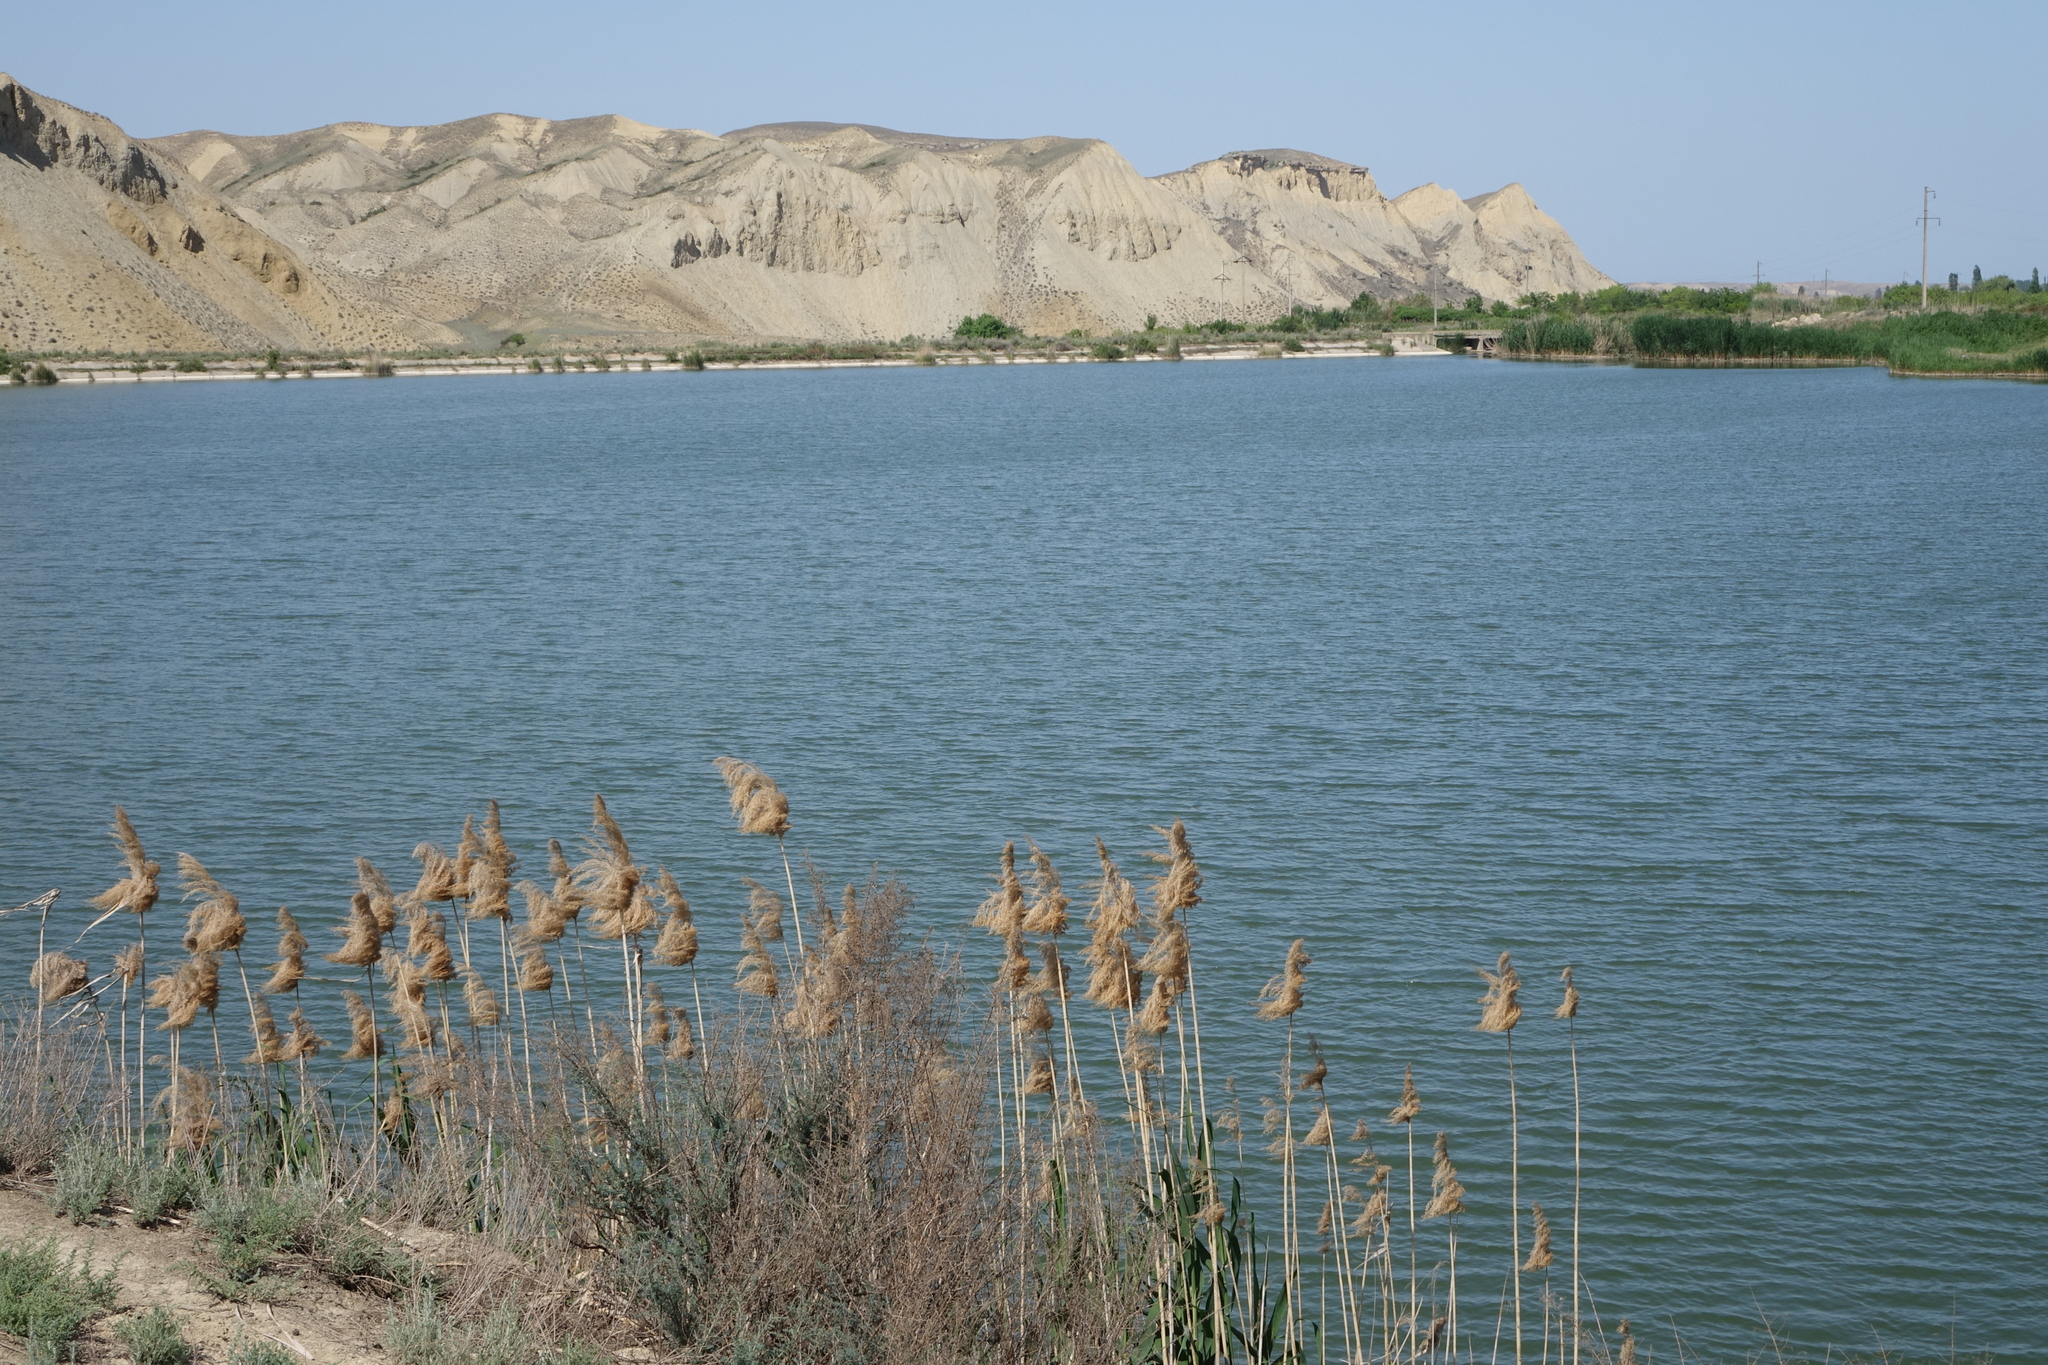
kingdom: Plantae
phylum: Tracheophyta
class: Liliopsida
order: Poales
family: Poaceae
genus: Phragmites
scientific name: Phragmites australis
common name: Common reed
